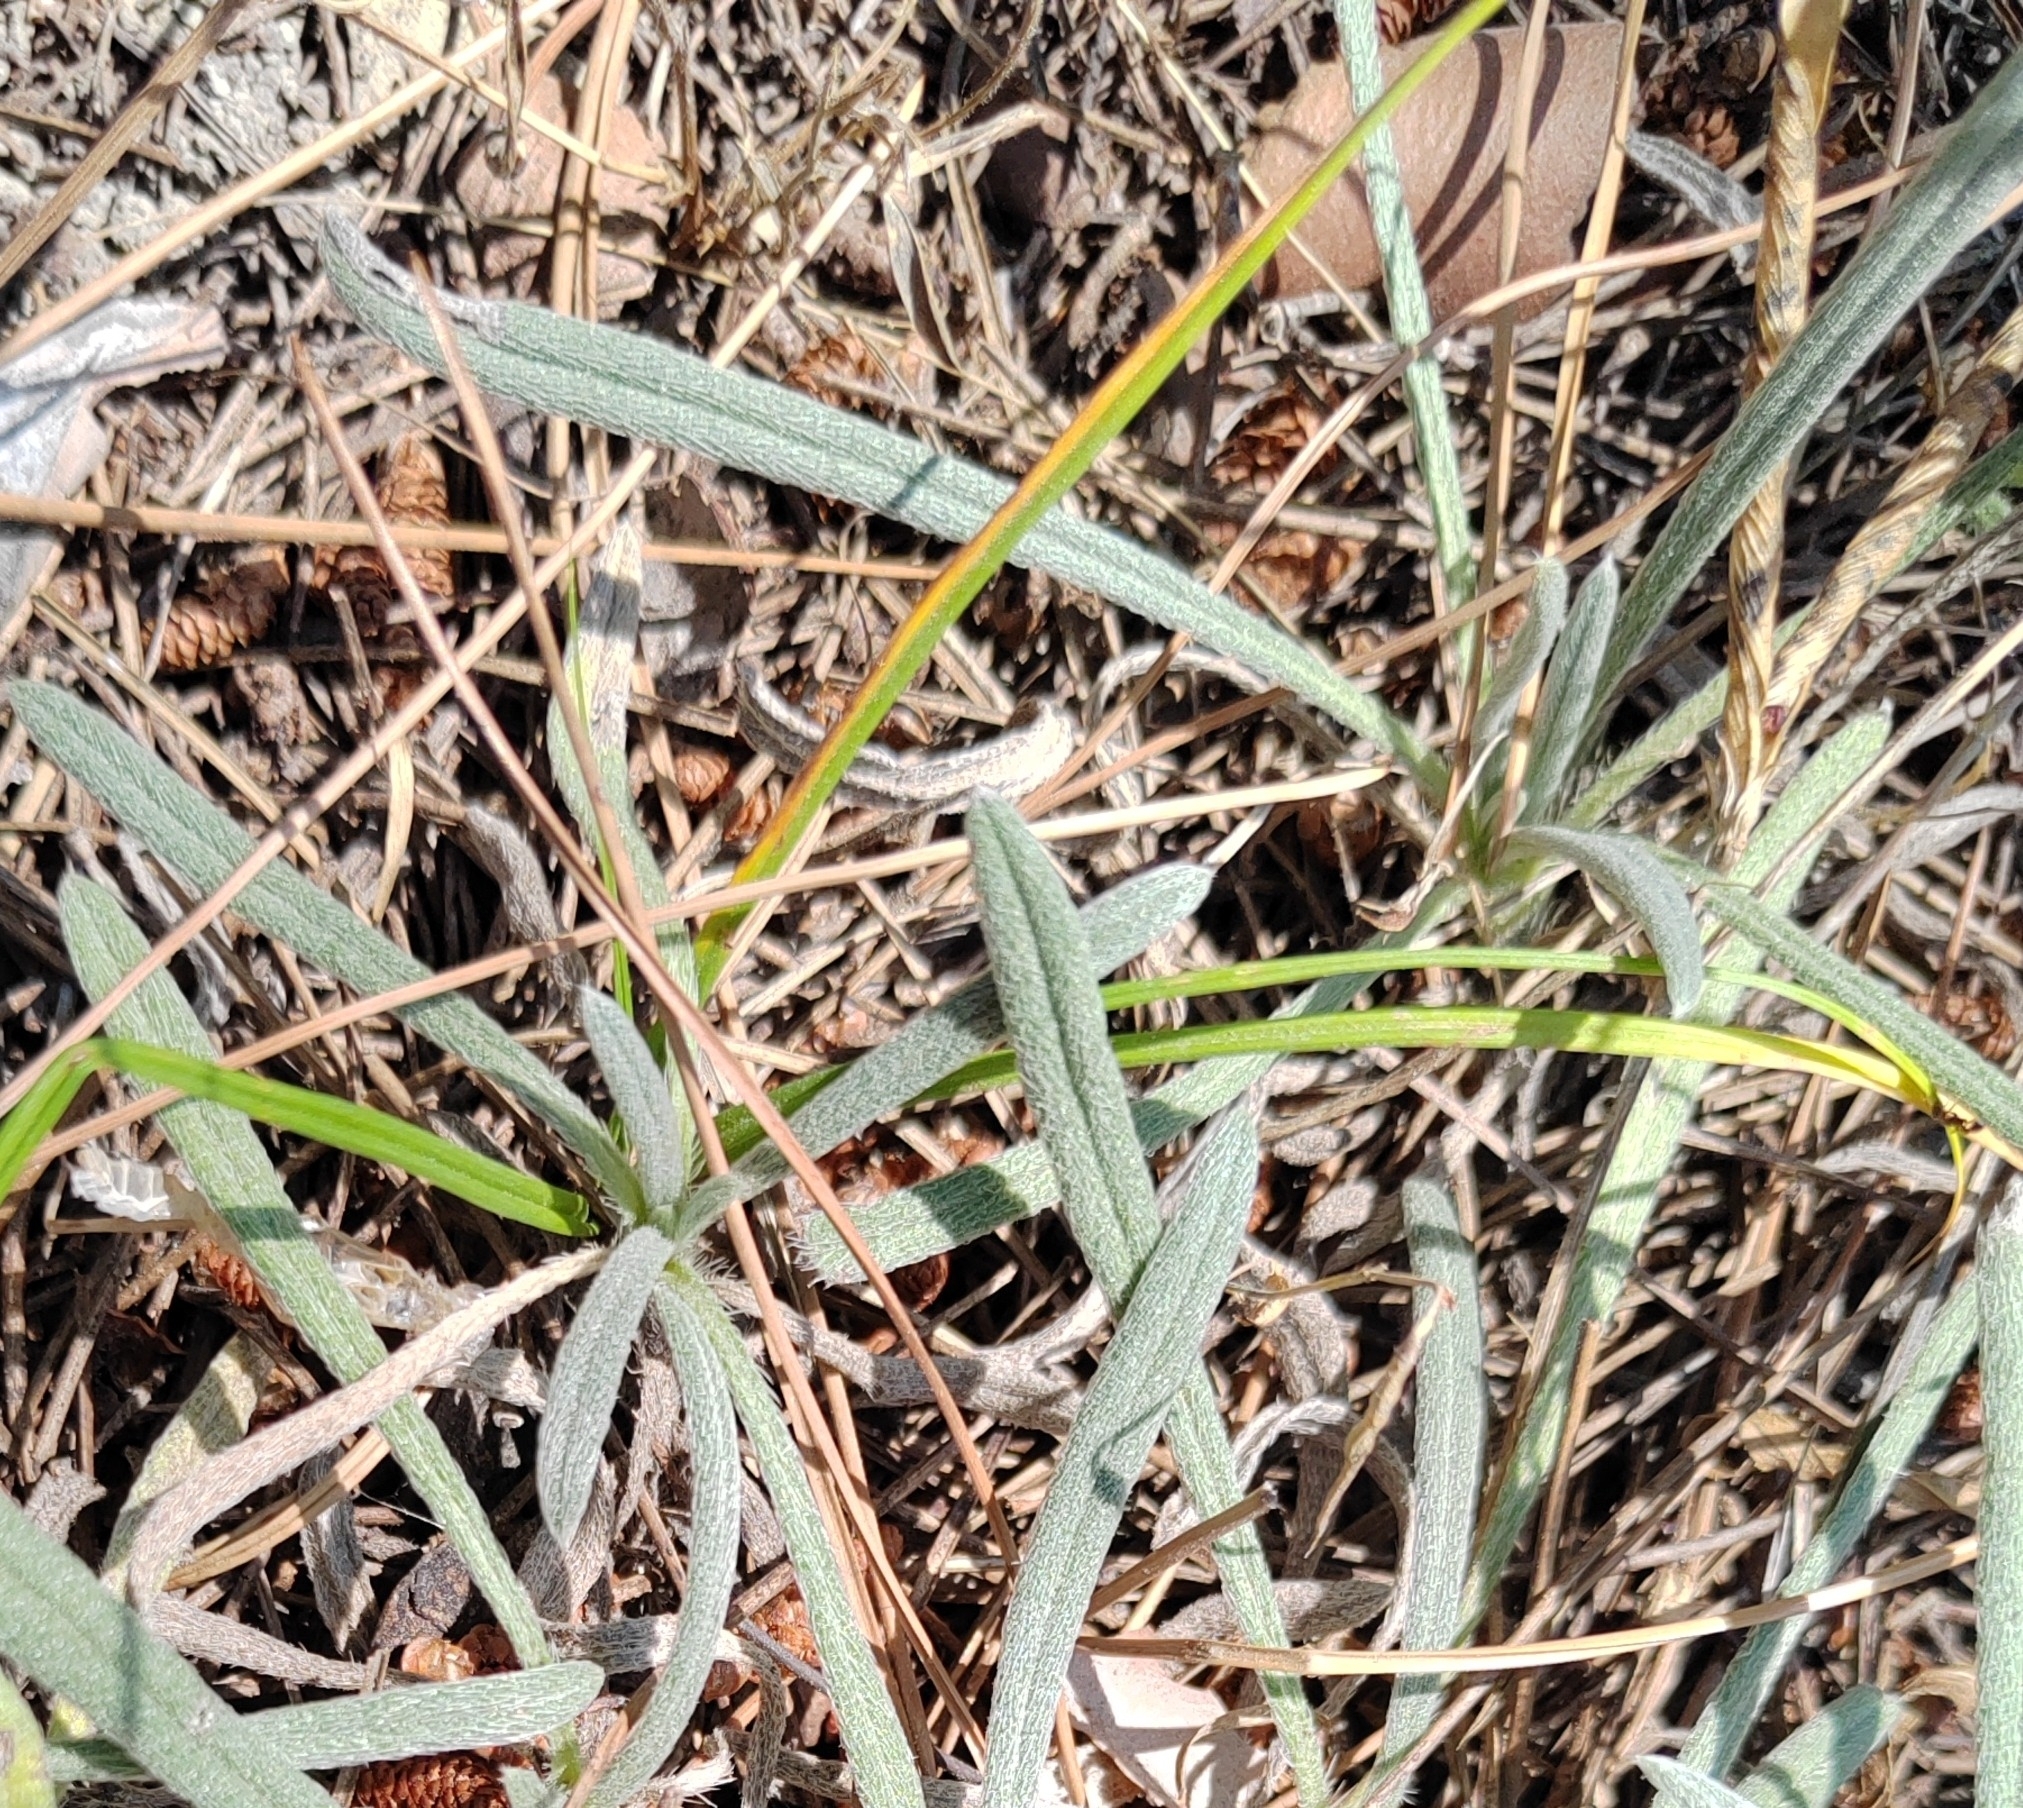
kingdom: Plantae
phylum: Tracheophyta
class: Magnoliopsida
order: Boraginales
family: Boraginaceae
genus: Onosma
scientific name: Onosma taurica
